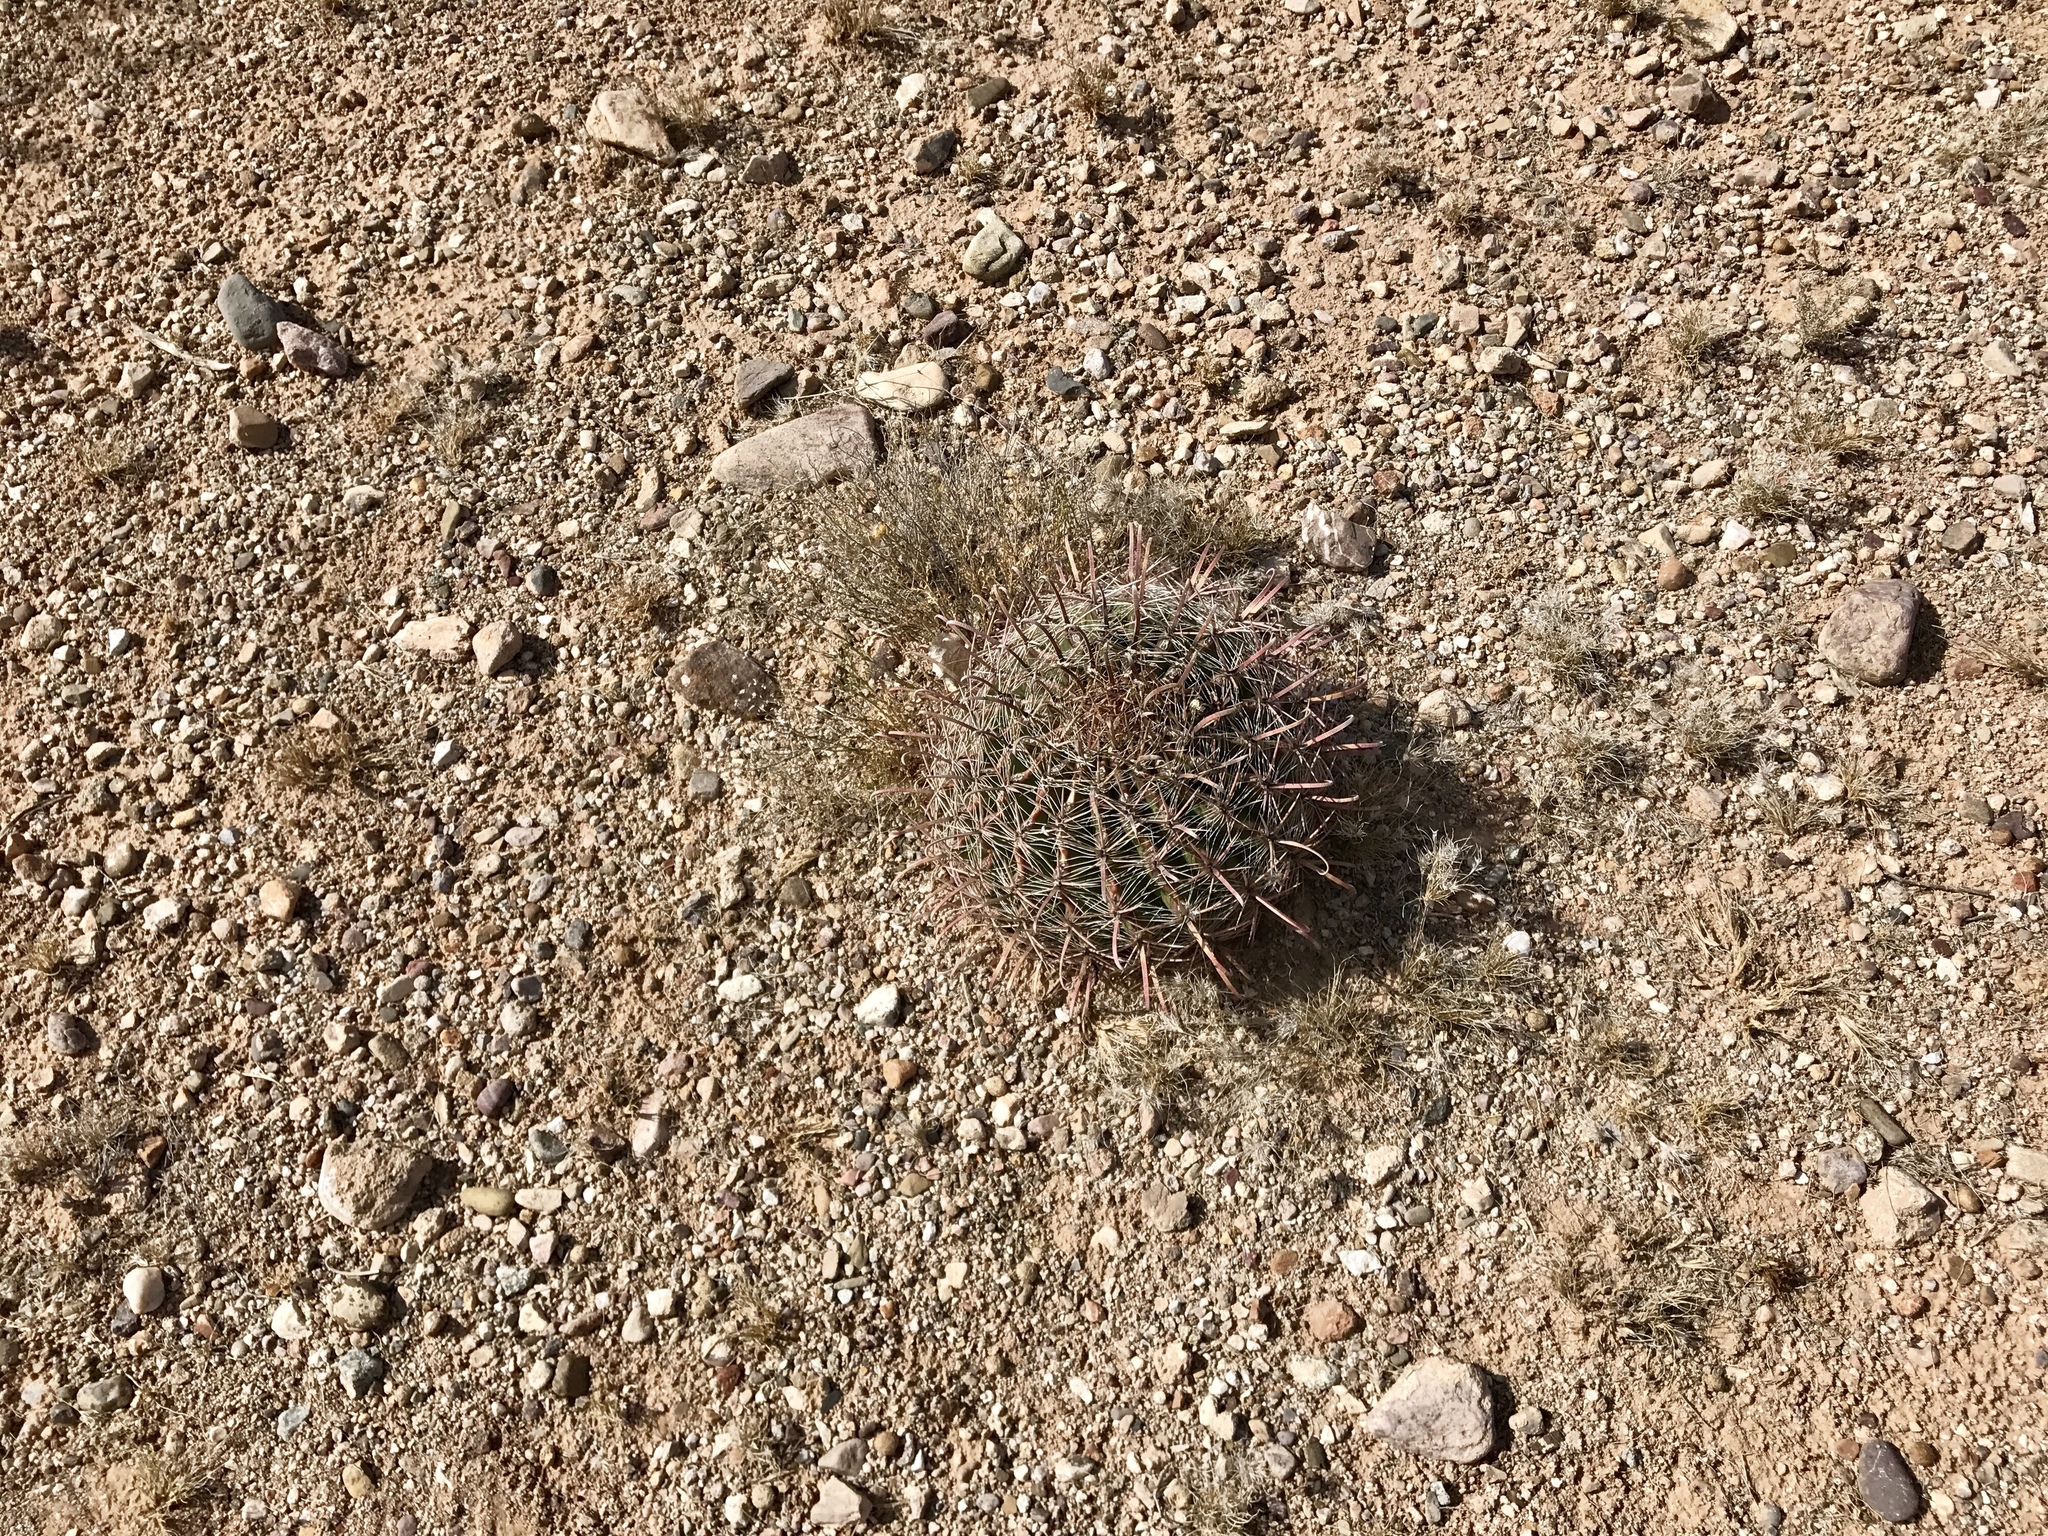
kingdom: Plantae
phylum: Tracheophyta
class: Magnoliopsida
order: Caryophyllales
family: Cactaceae
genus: Ferocactus
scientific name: Ferocactus wislizeni
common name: Candy barrel cactus
